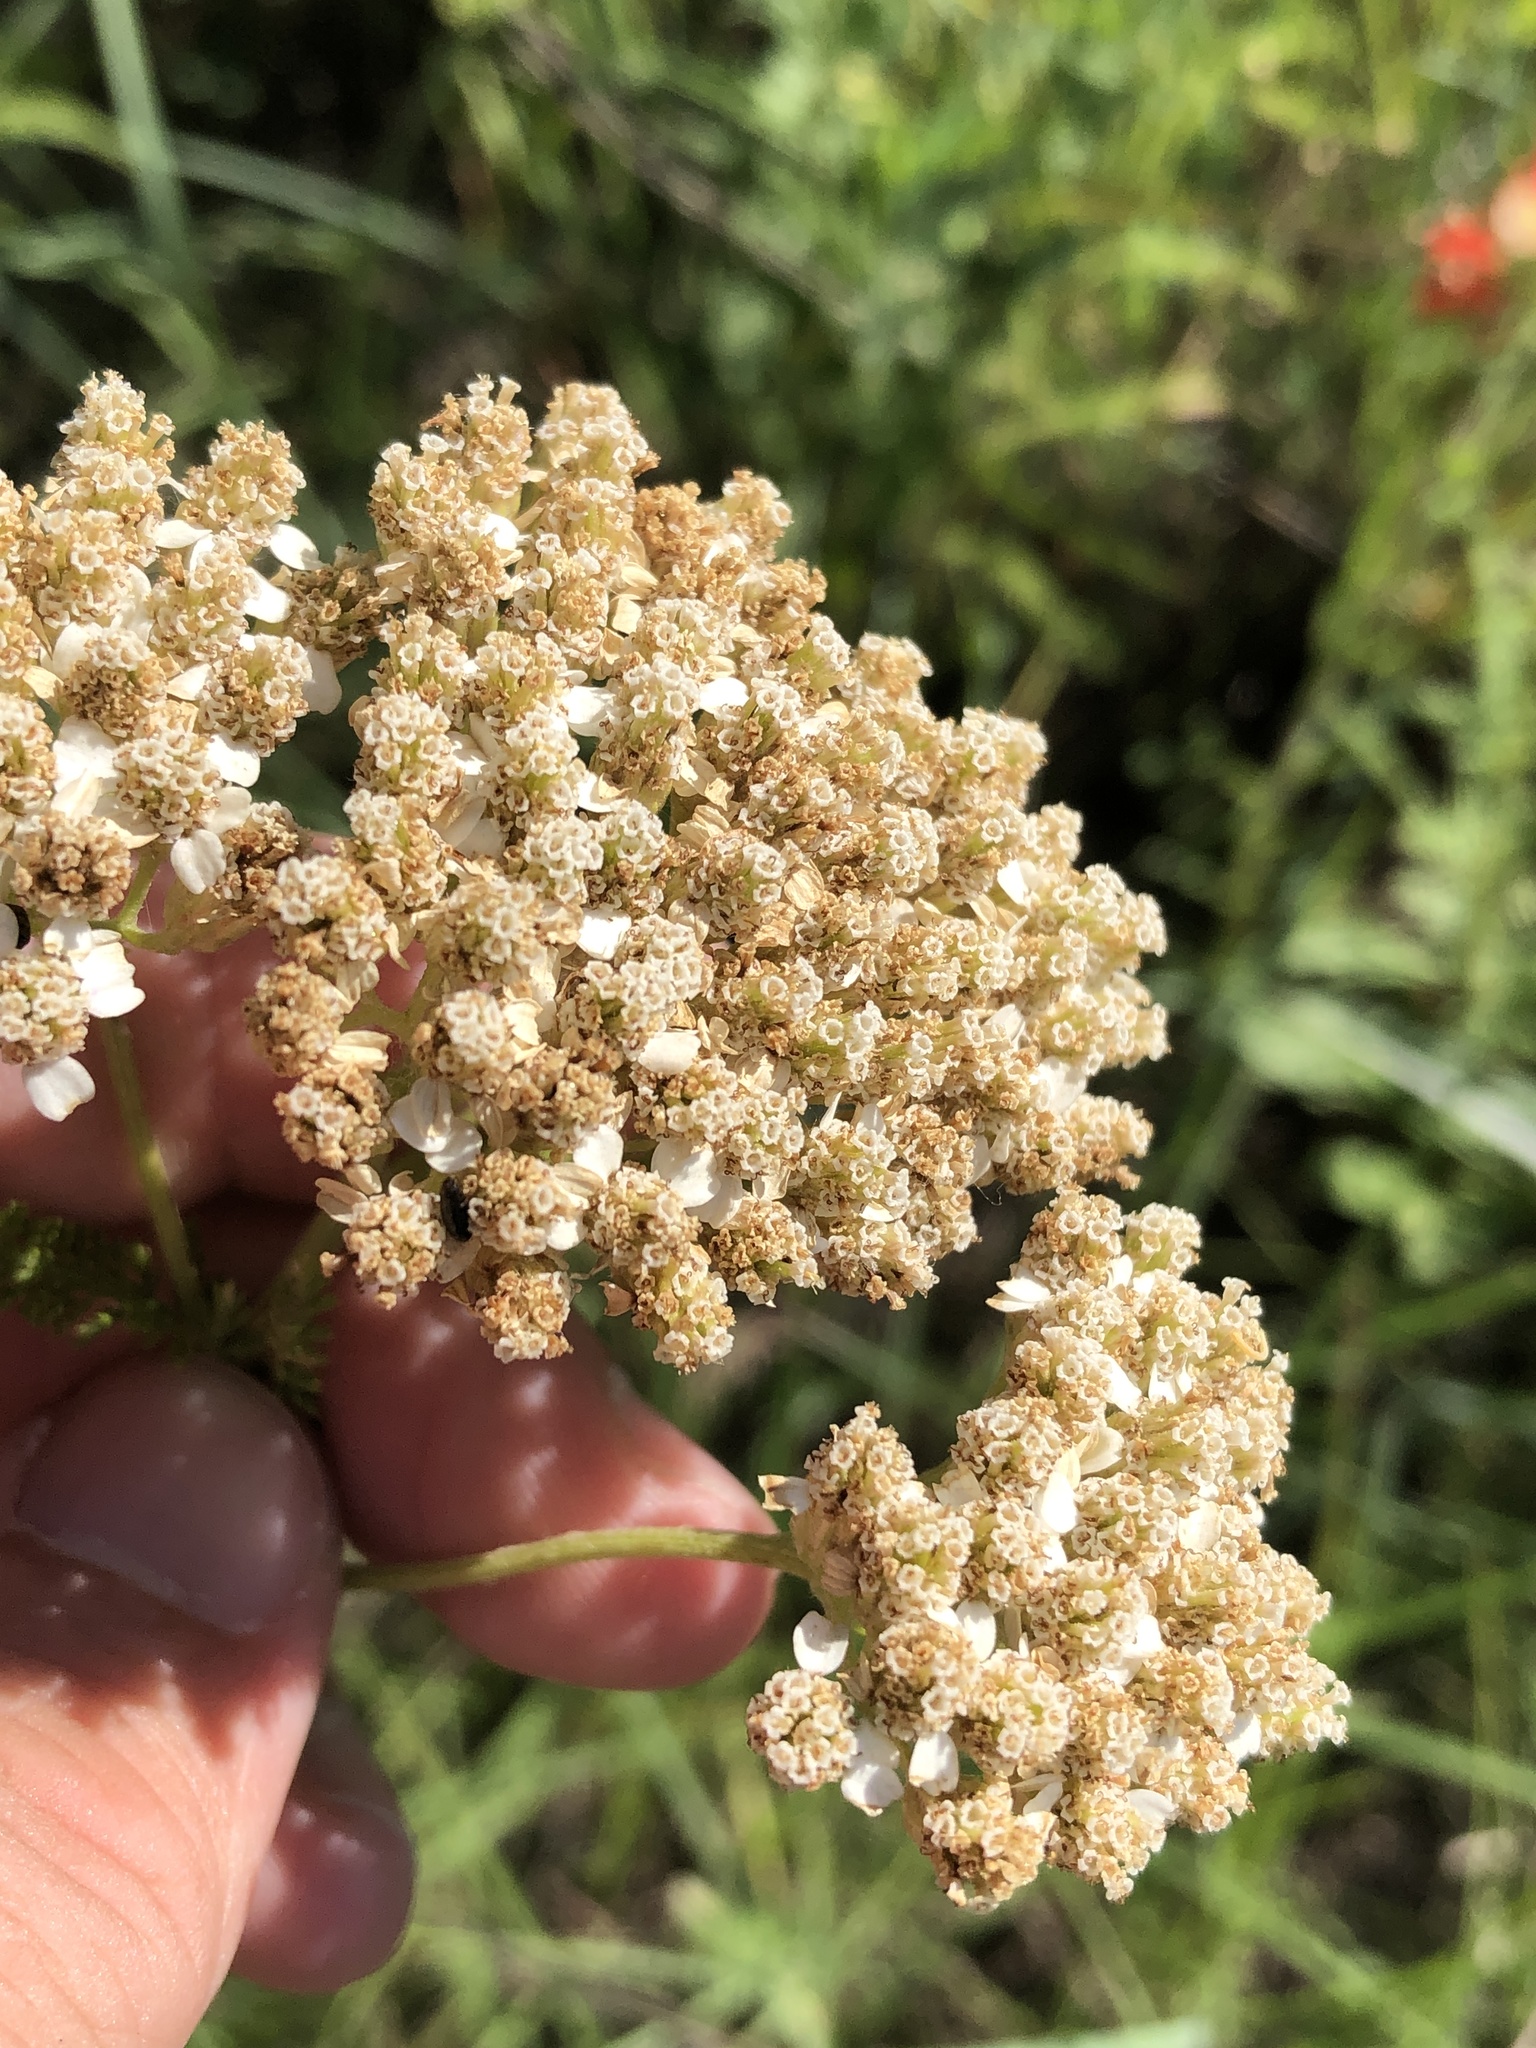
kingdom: Plantae
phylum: Tracheophyta
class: Magnoliopsida
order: Asterales
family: Asteraceae
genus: Achillea
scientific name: Achillea millefolium
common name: Yarrow
